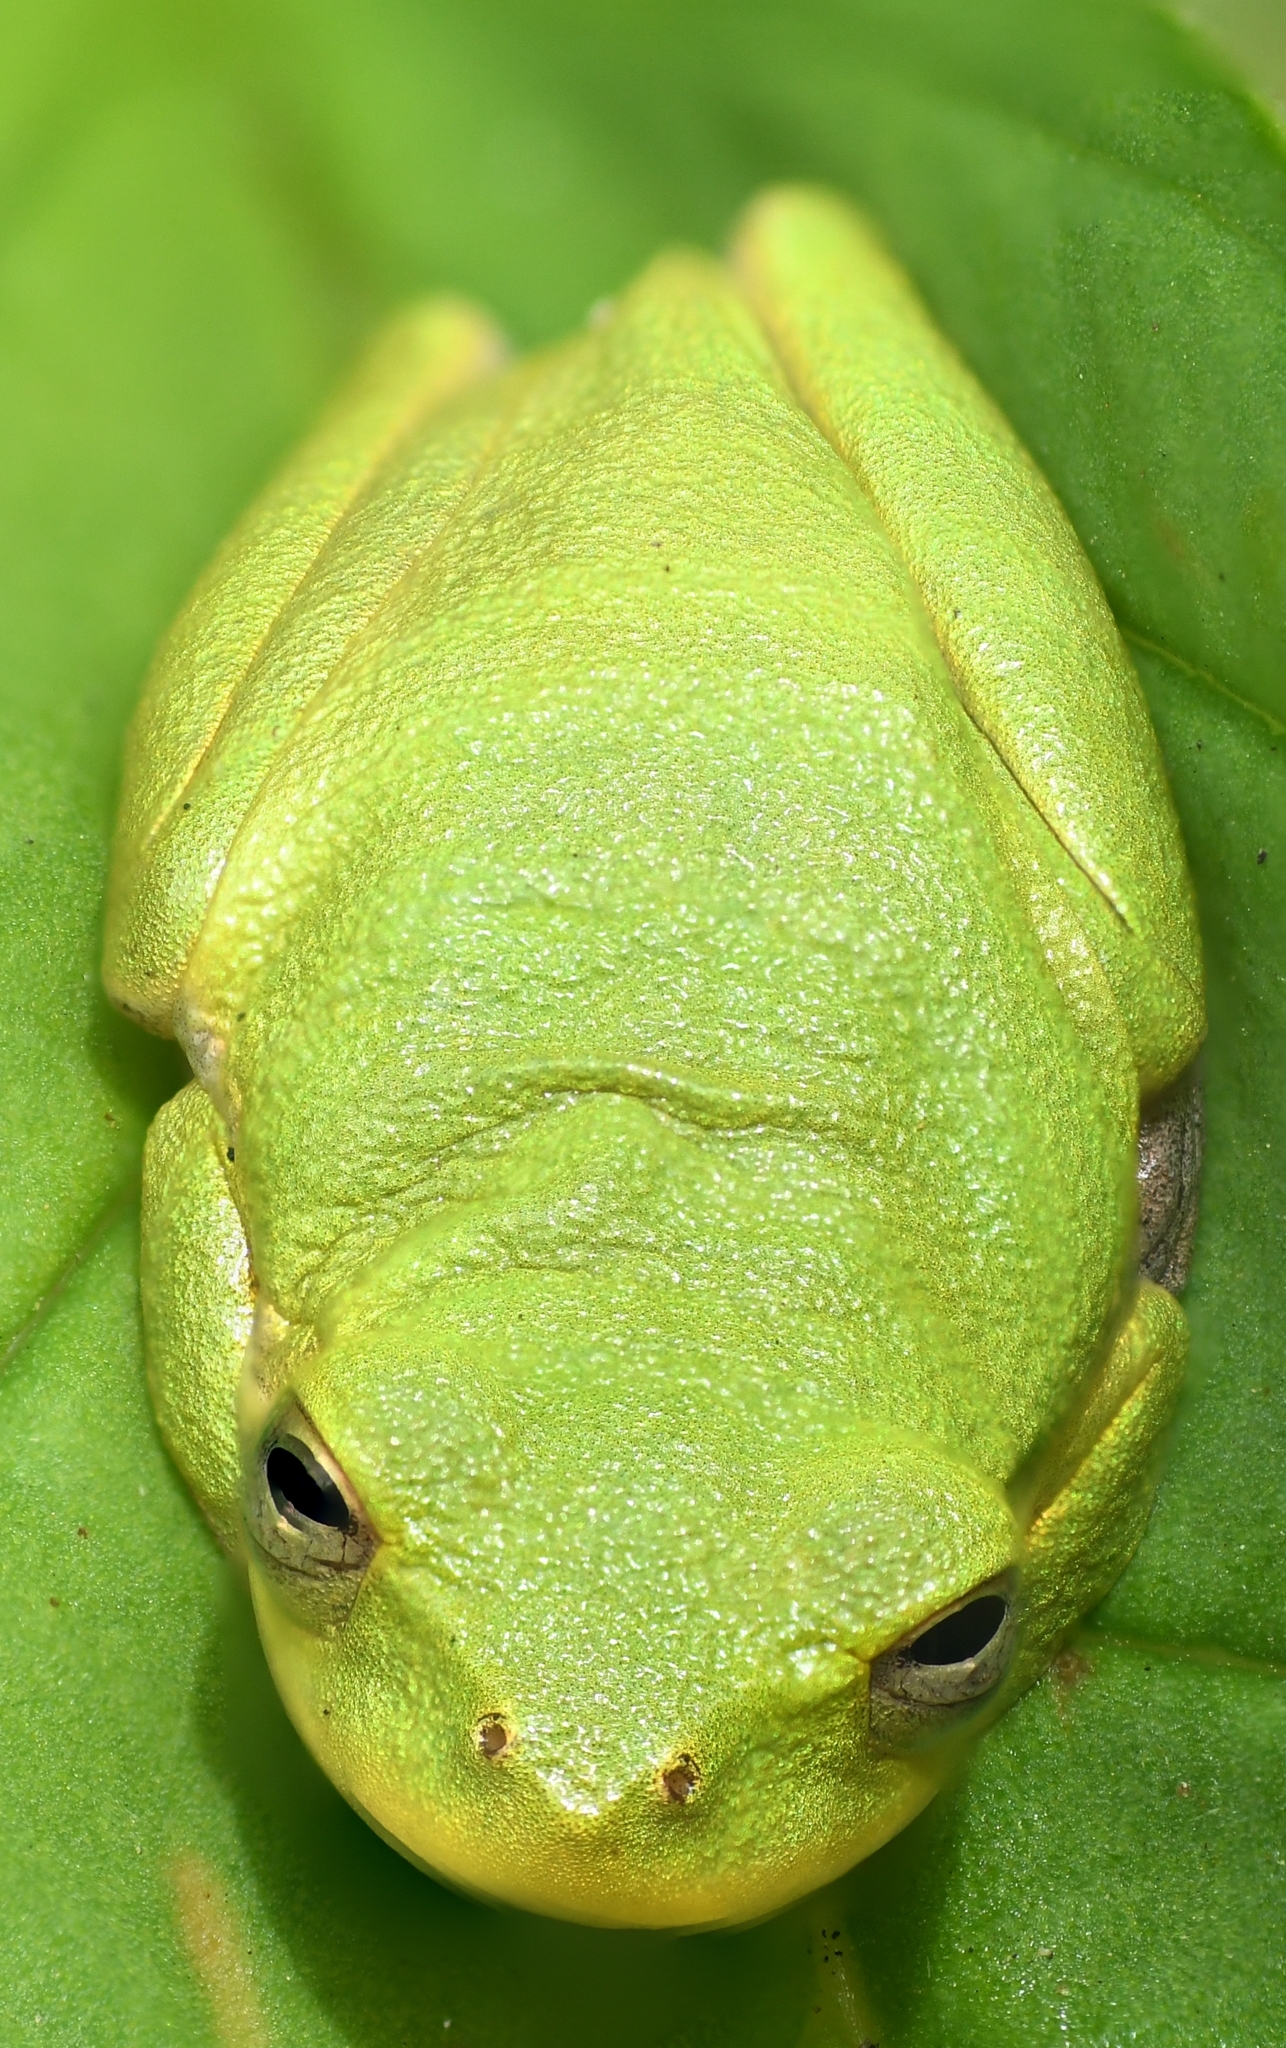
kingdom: Animalia
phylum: Chordata
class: Amphibia
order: Anura
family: Hylidae
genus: Dryophytes
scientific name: Dryophytes squirellus
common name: Squirrel treefrog
